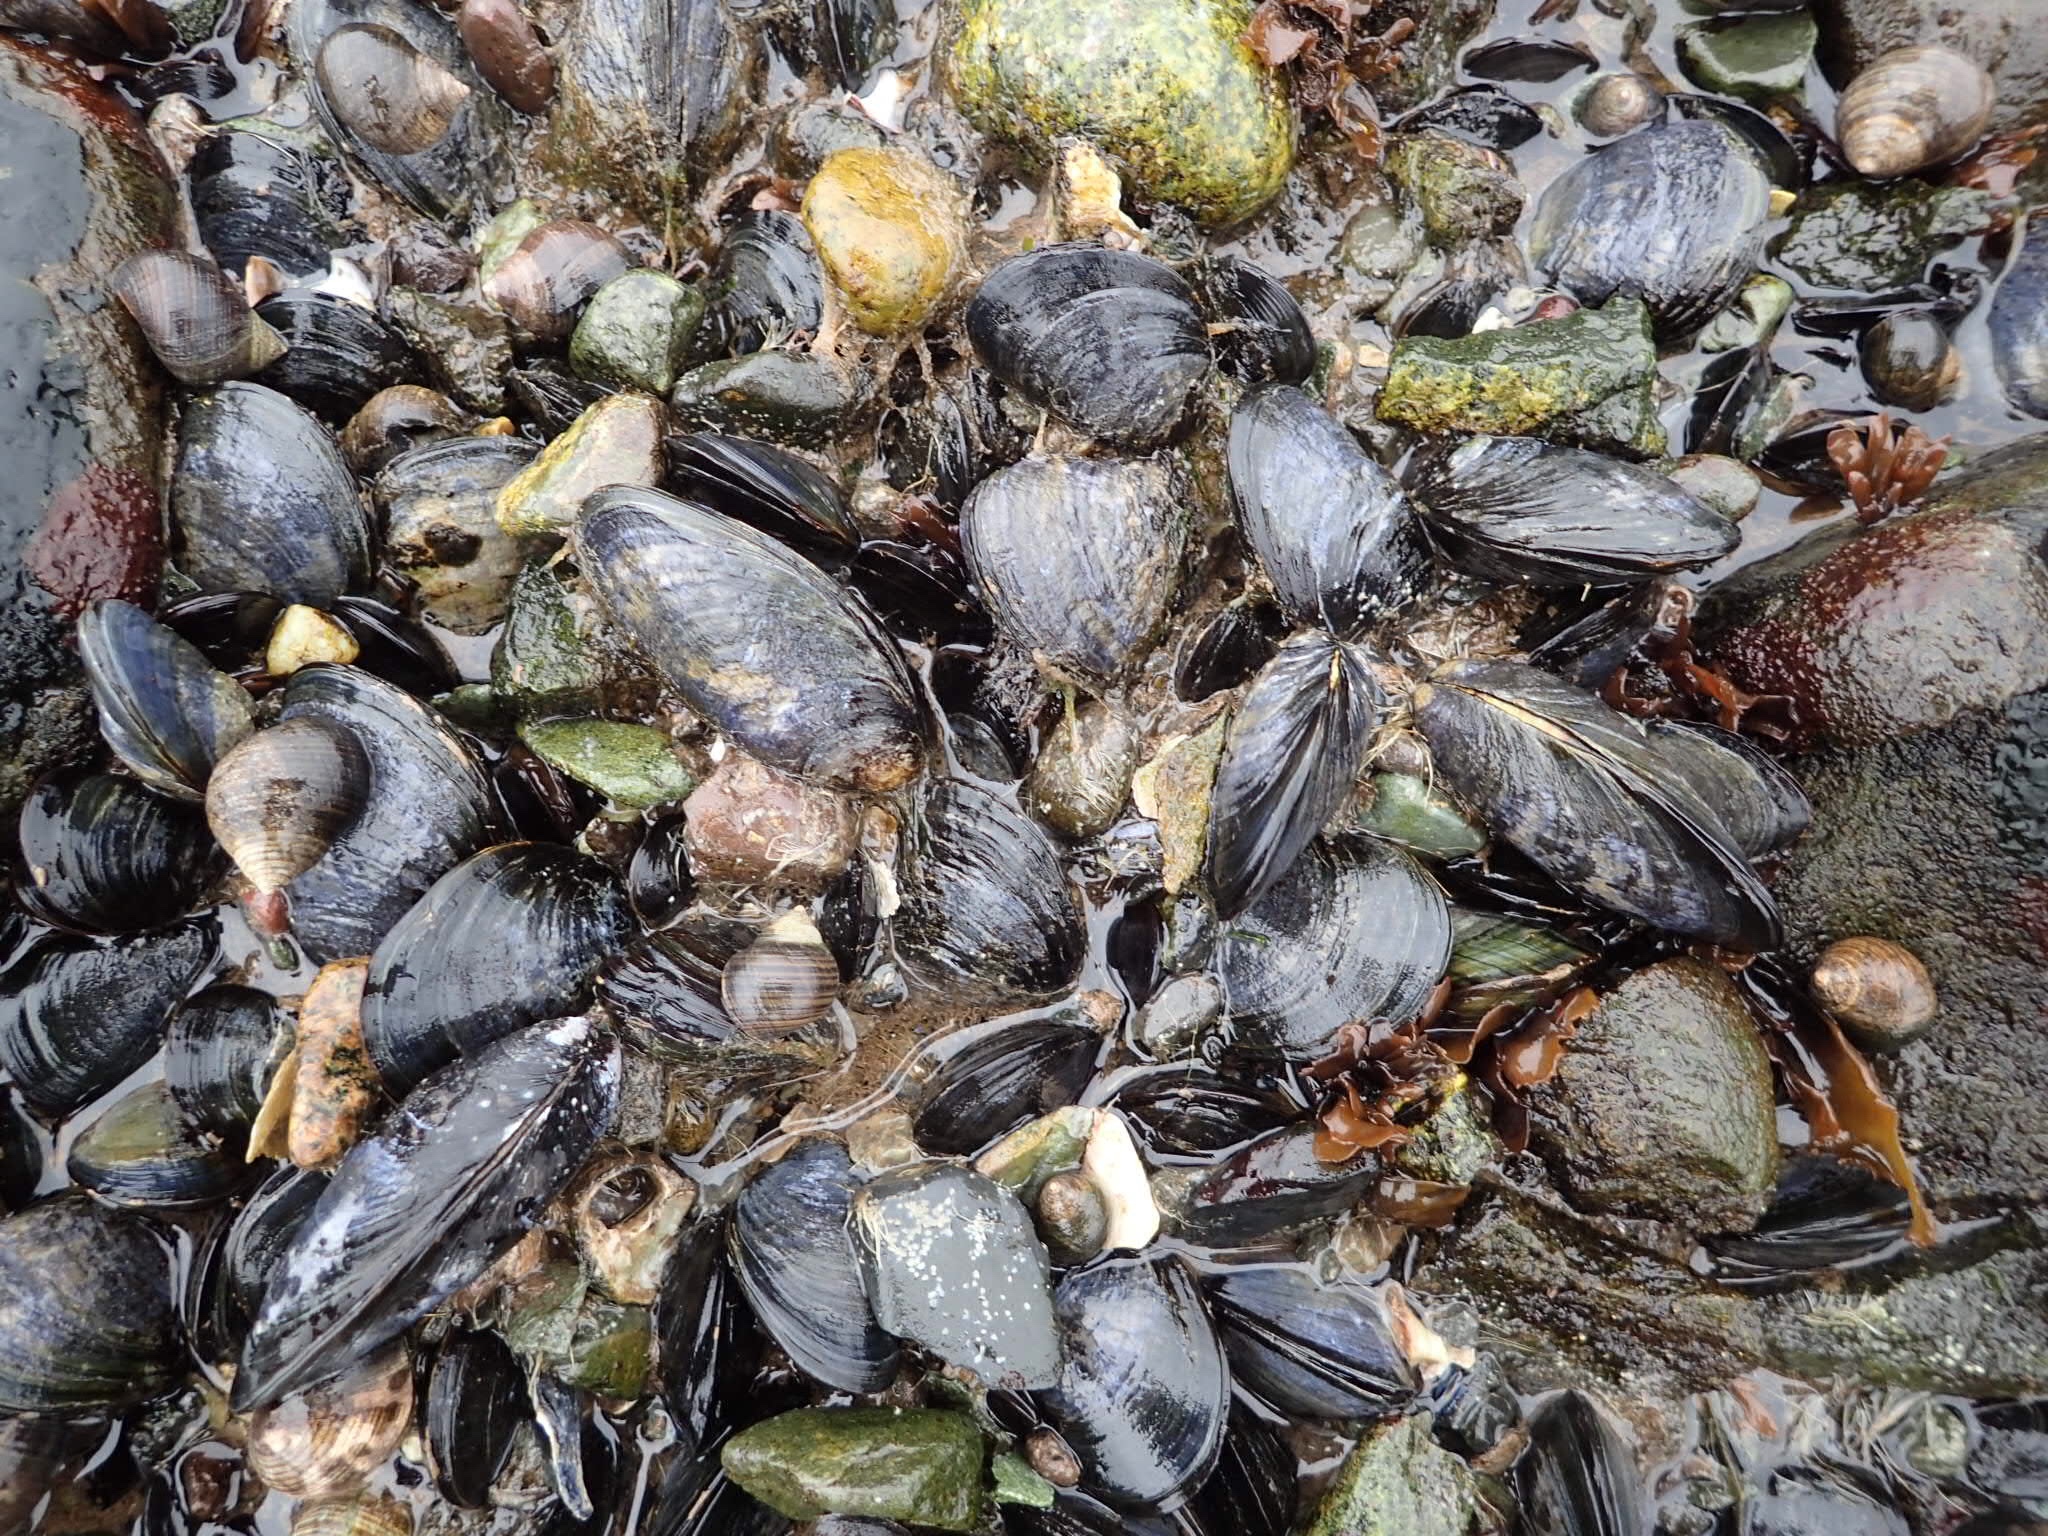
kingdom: Animalia
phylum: Mollusca
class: Bivalvia
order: Mytilida
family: Mytilidae
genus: Mytilus
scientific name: Mytilus edulis
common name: Blue mussel
